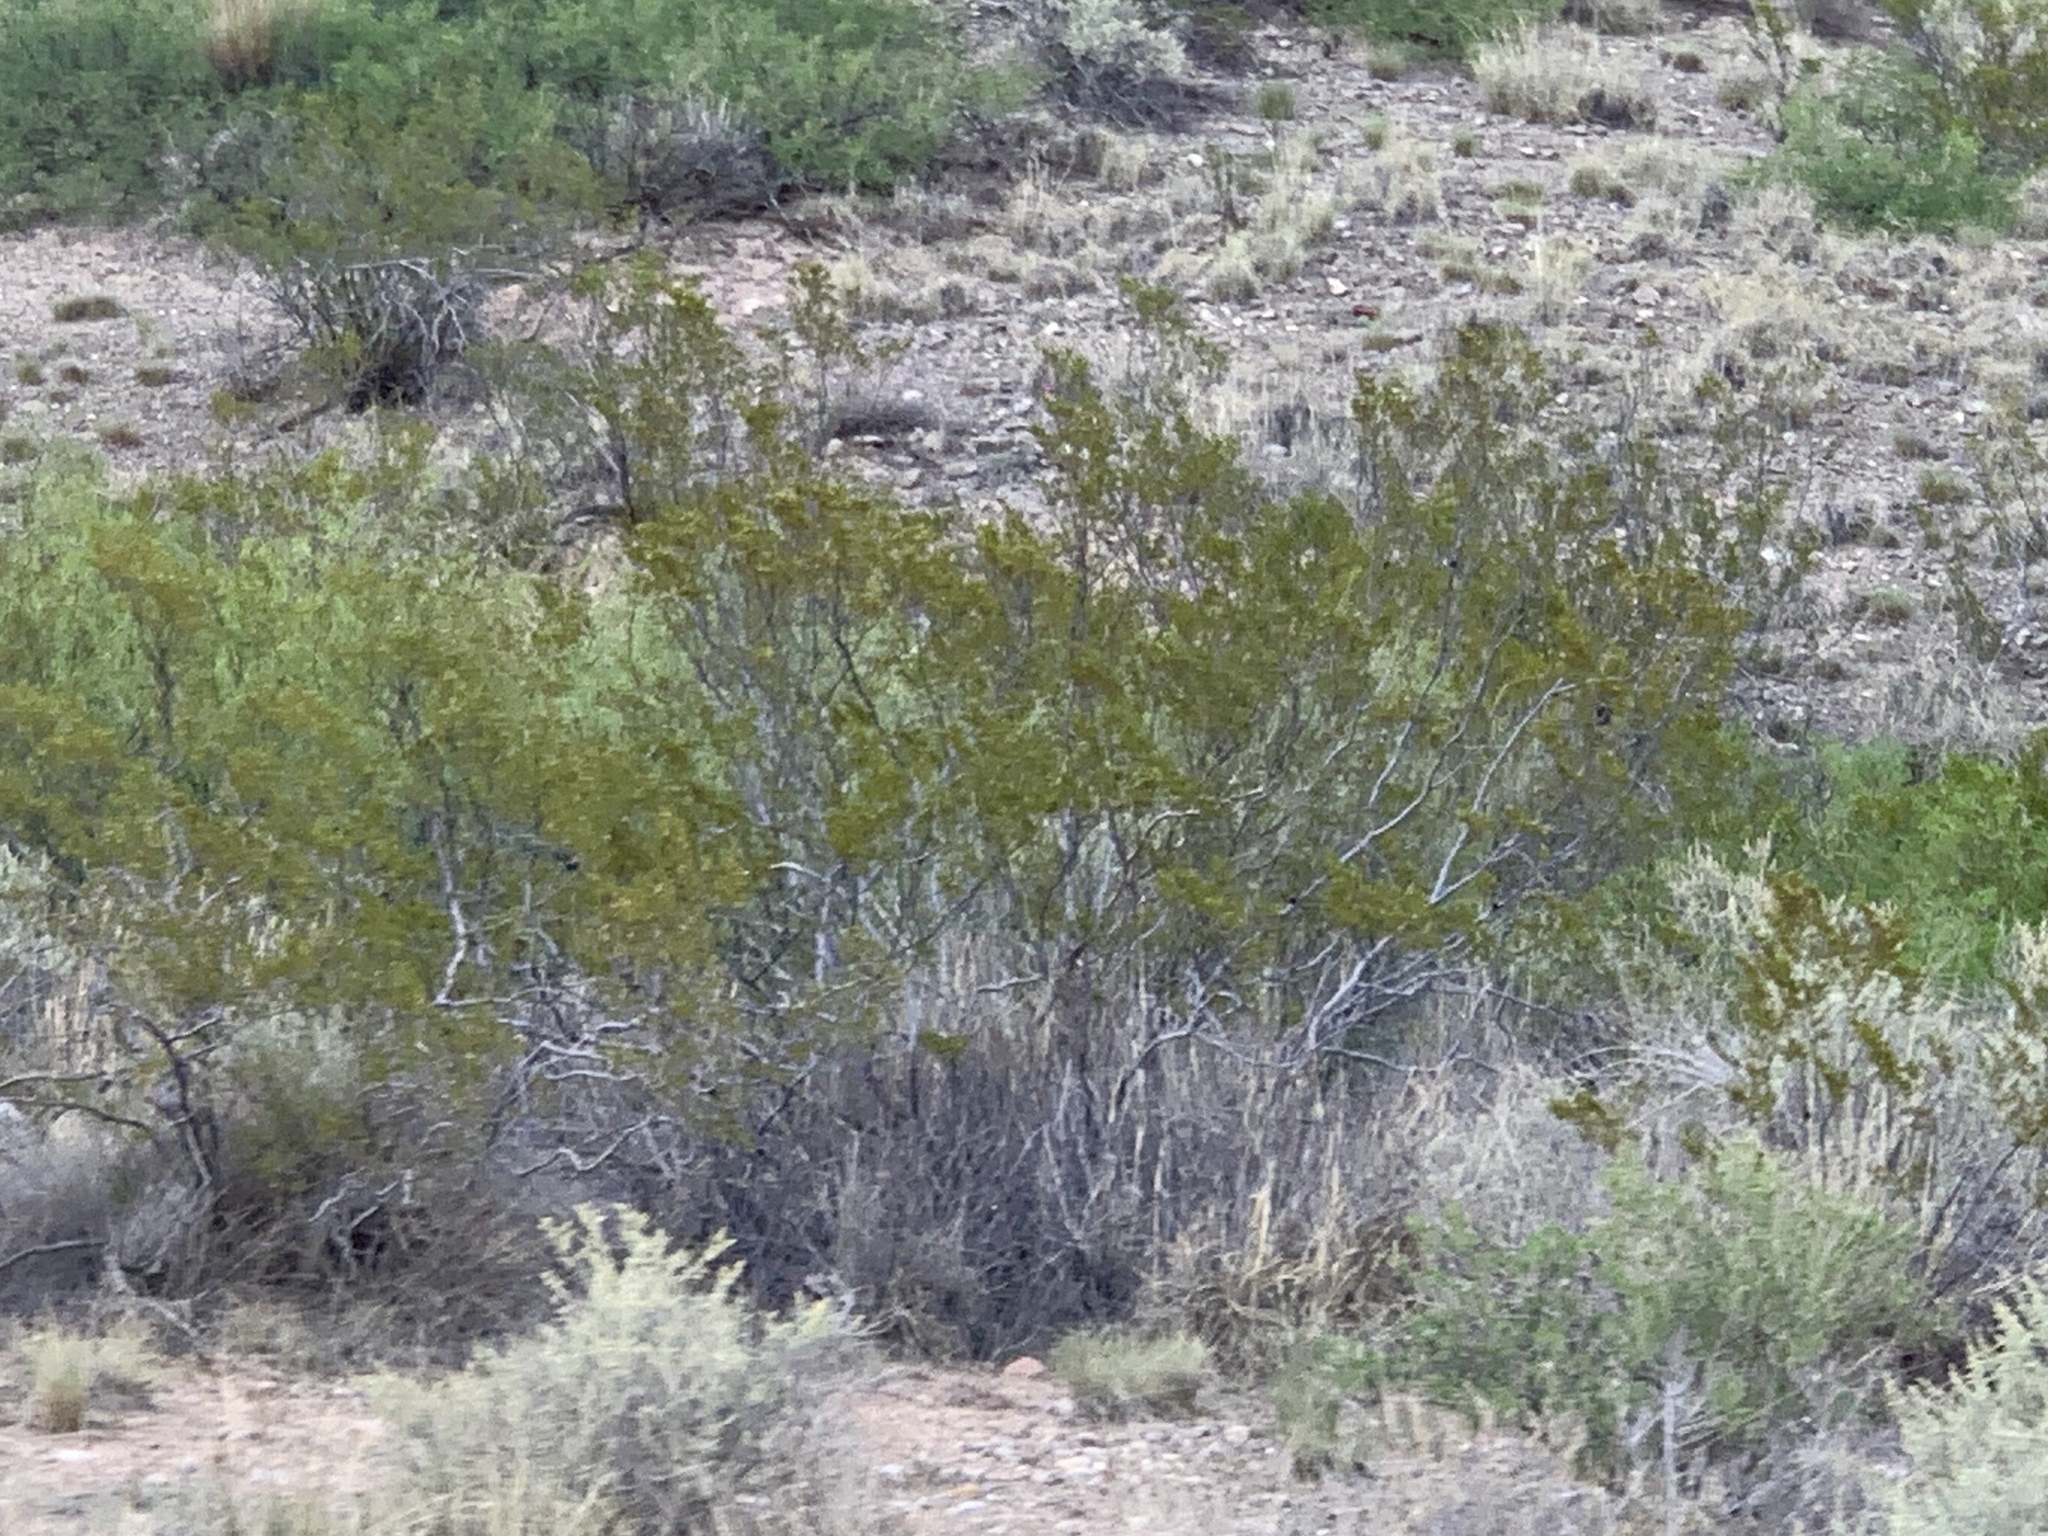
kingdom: Plantae
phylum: Tracheophyta
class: Magnoliopsida
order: Zygophyllales
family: Zygophyllaceae
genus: Larrea
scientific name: Larrea tridentata
